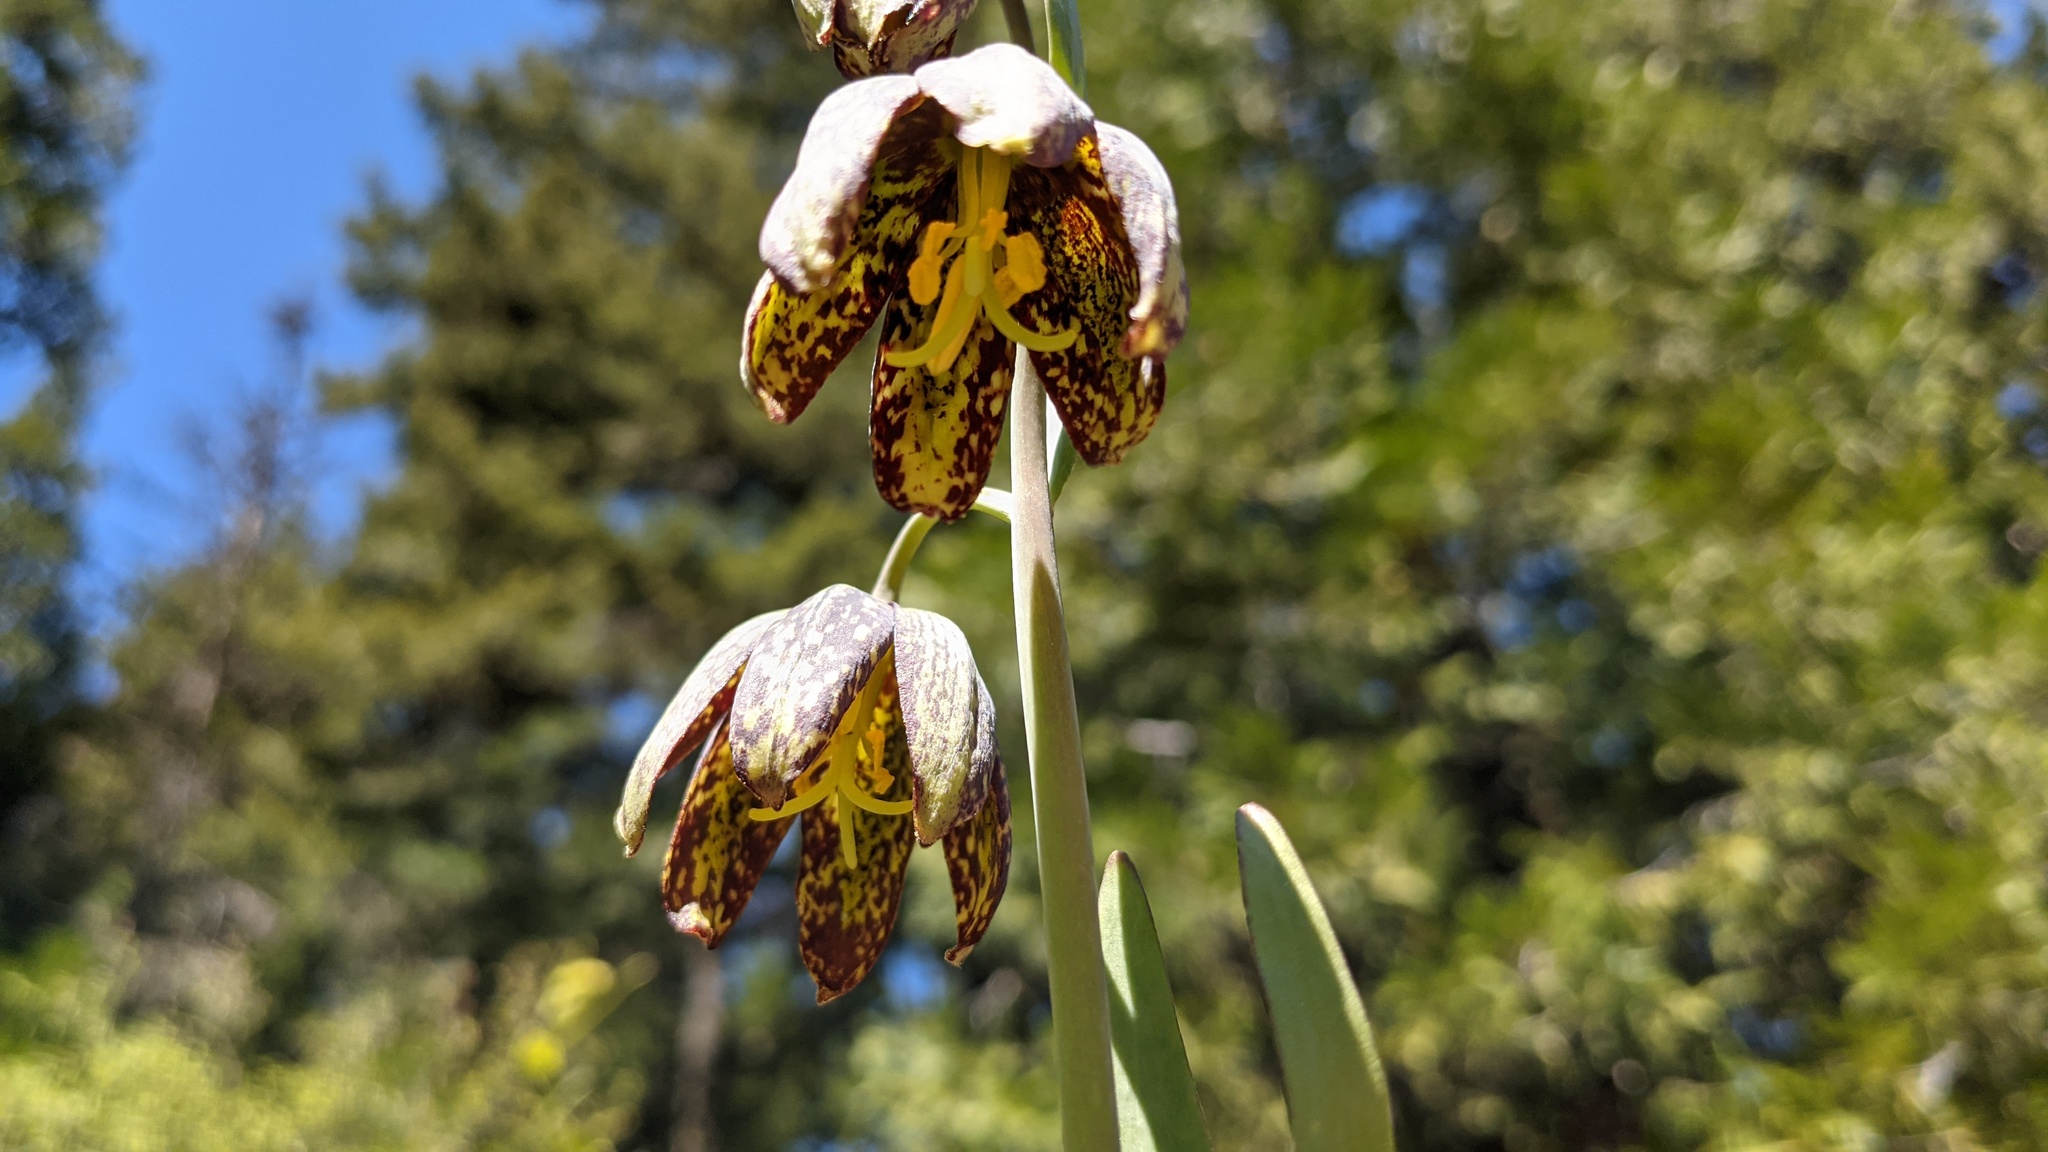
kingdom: Plantae
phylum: Tracheophyta
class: Liliopsida
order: Liliales
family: Liliaceae
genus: Fritillaria
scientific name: Fritillaria affinis
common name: Ojai fritillary
